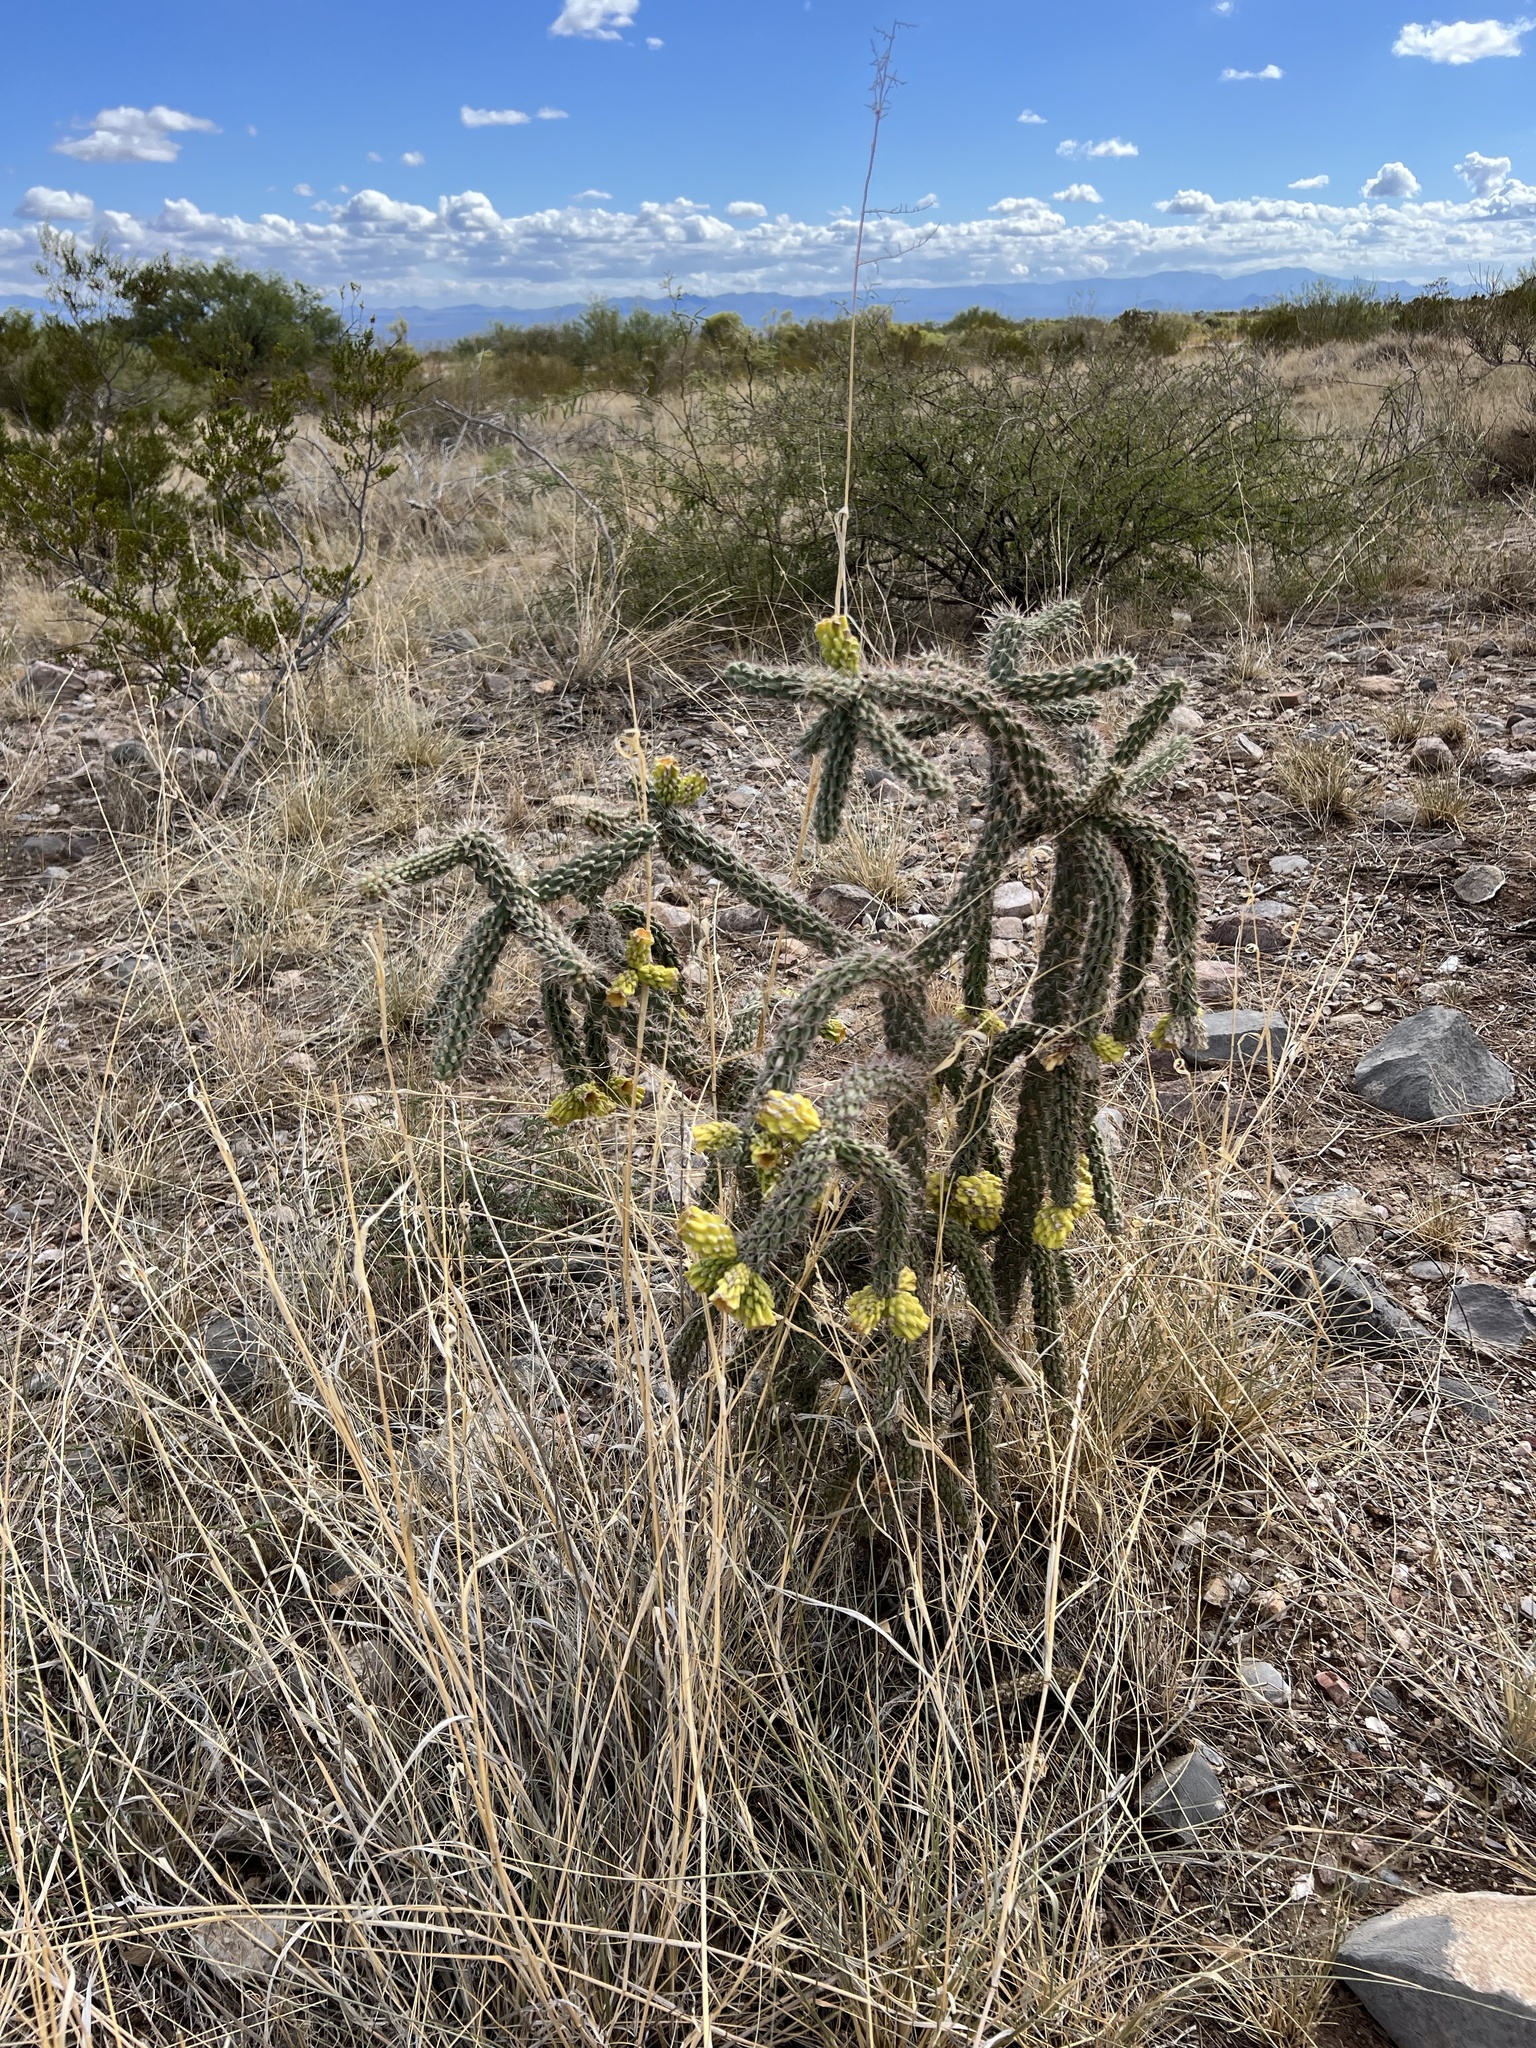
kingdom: Plantae
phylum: Tracheophyta
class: Magnoliopsida
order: Caryophyllales
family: Cactaceae
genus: Cylindropuntia
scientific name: Cylindropuntia imbricata
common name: Candelabrum cactus
